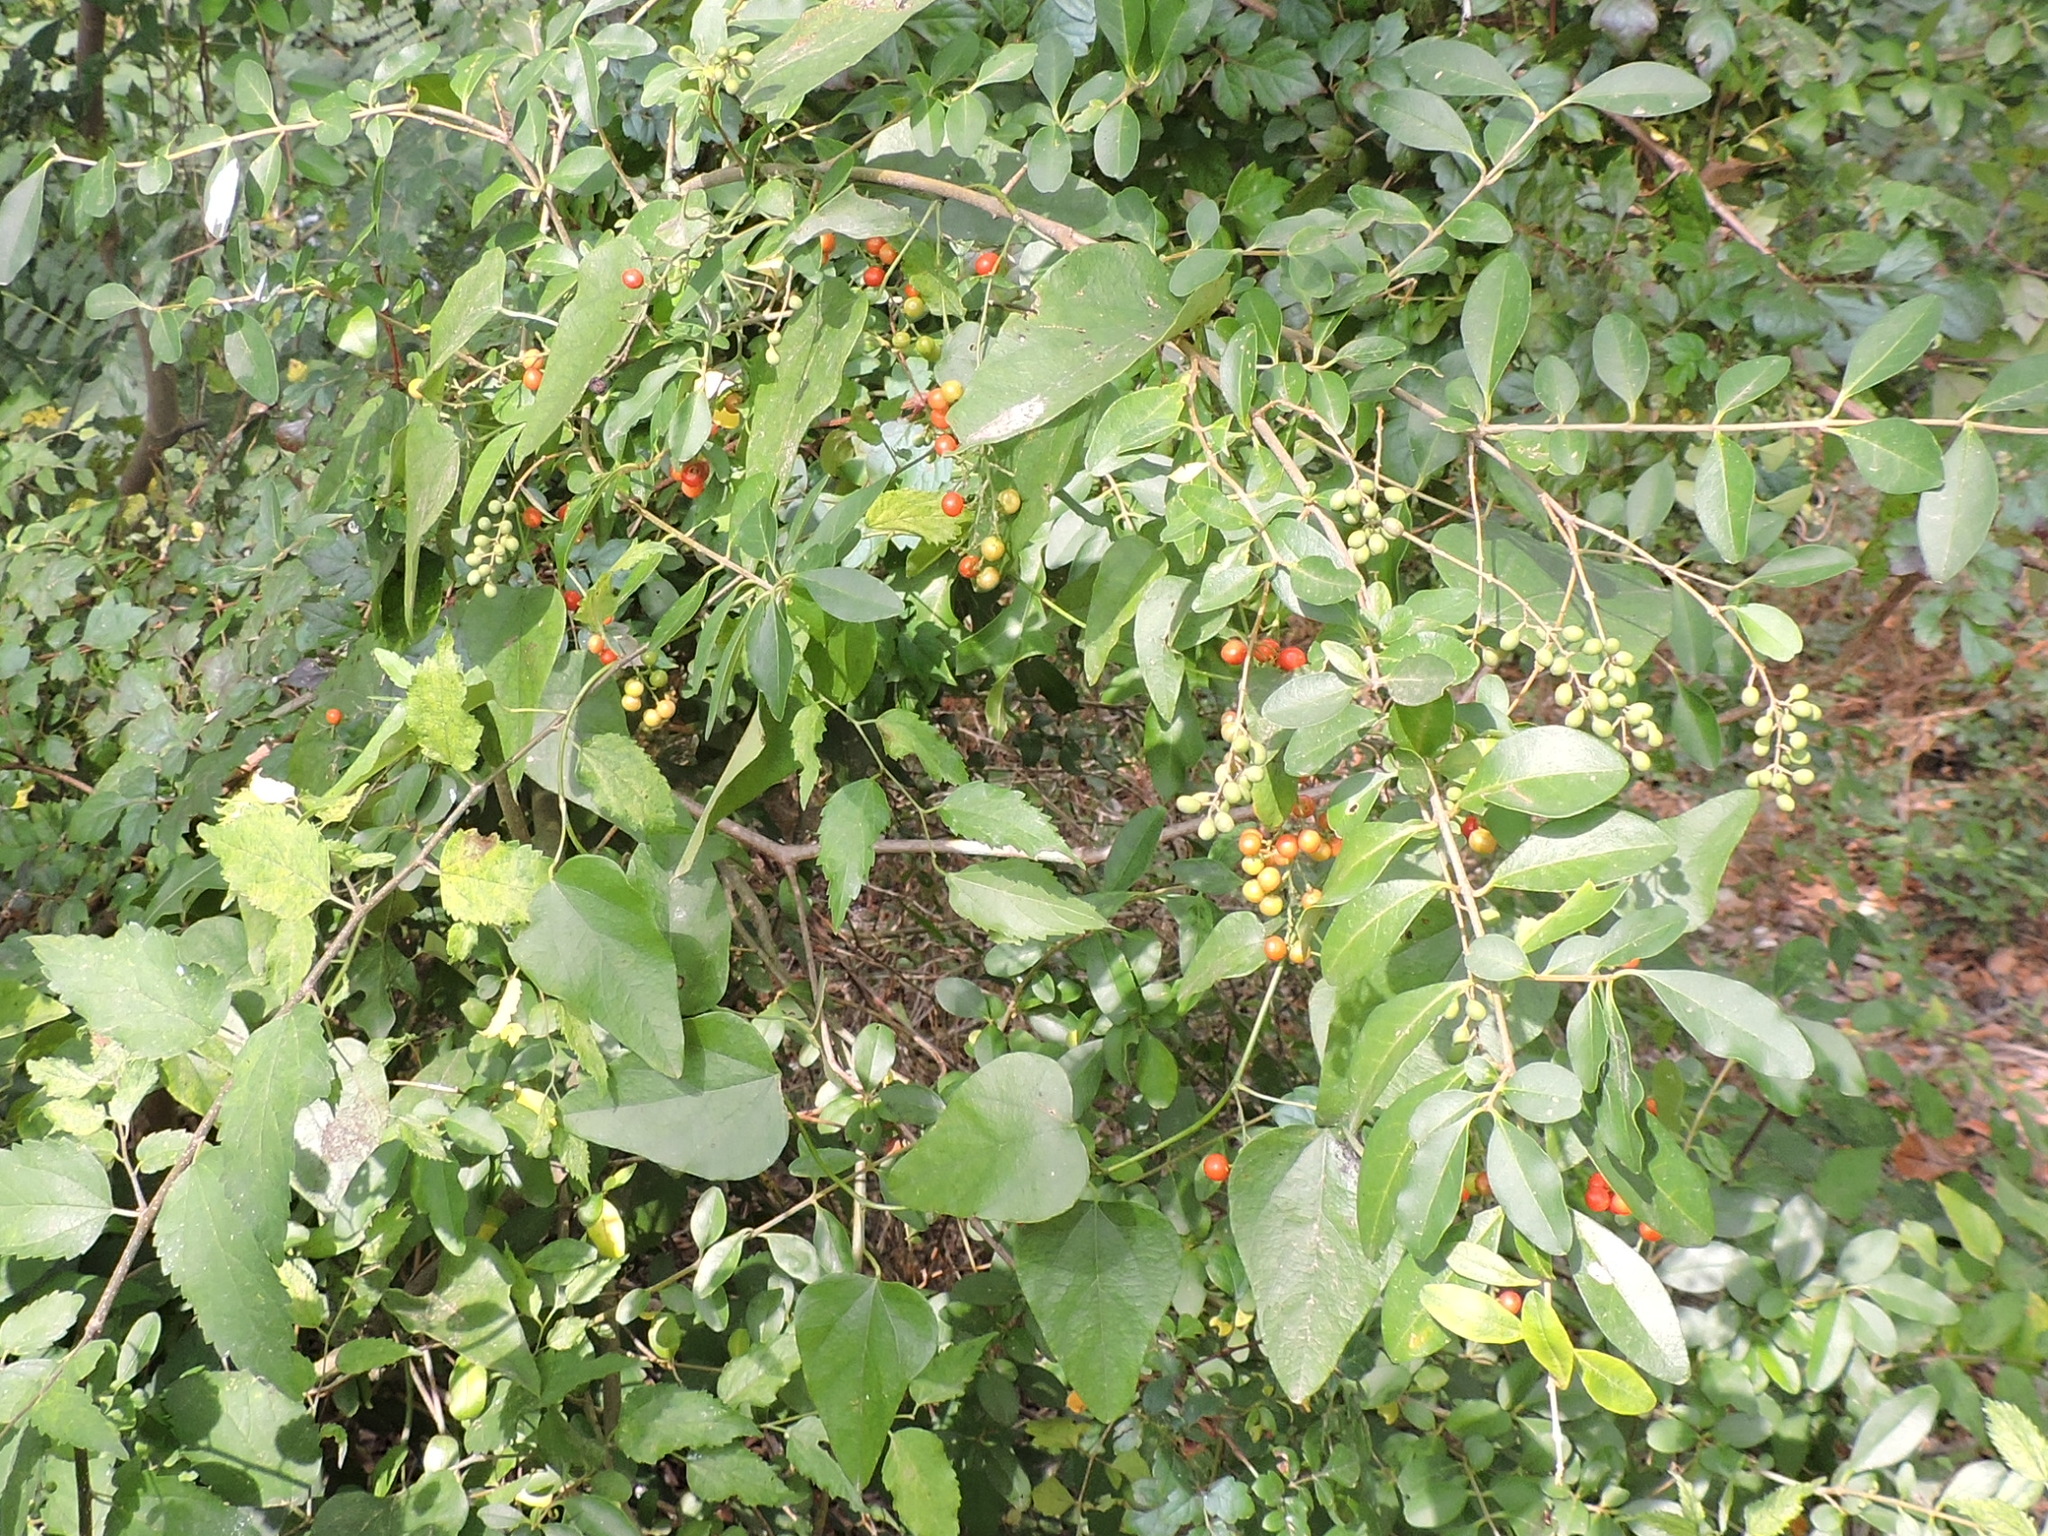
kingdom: Plantae
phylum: Tracheophyta
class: Magnoliopsida
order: Ranunculales
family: Menispermaceae
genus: Cocculus
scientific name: Cocculus carolinus
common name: Carolina moonseed
